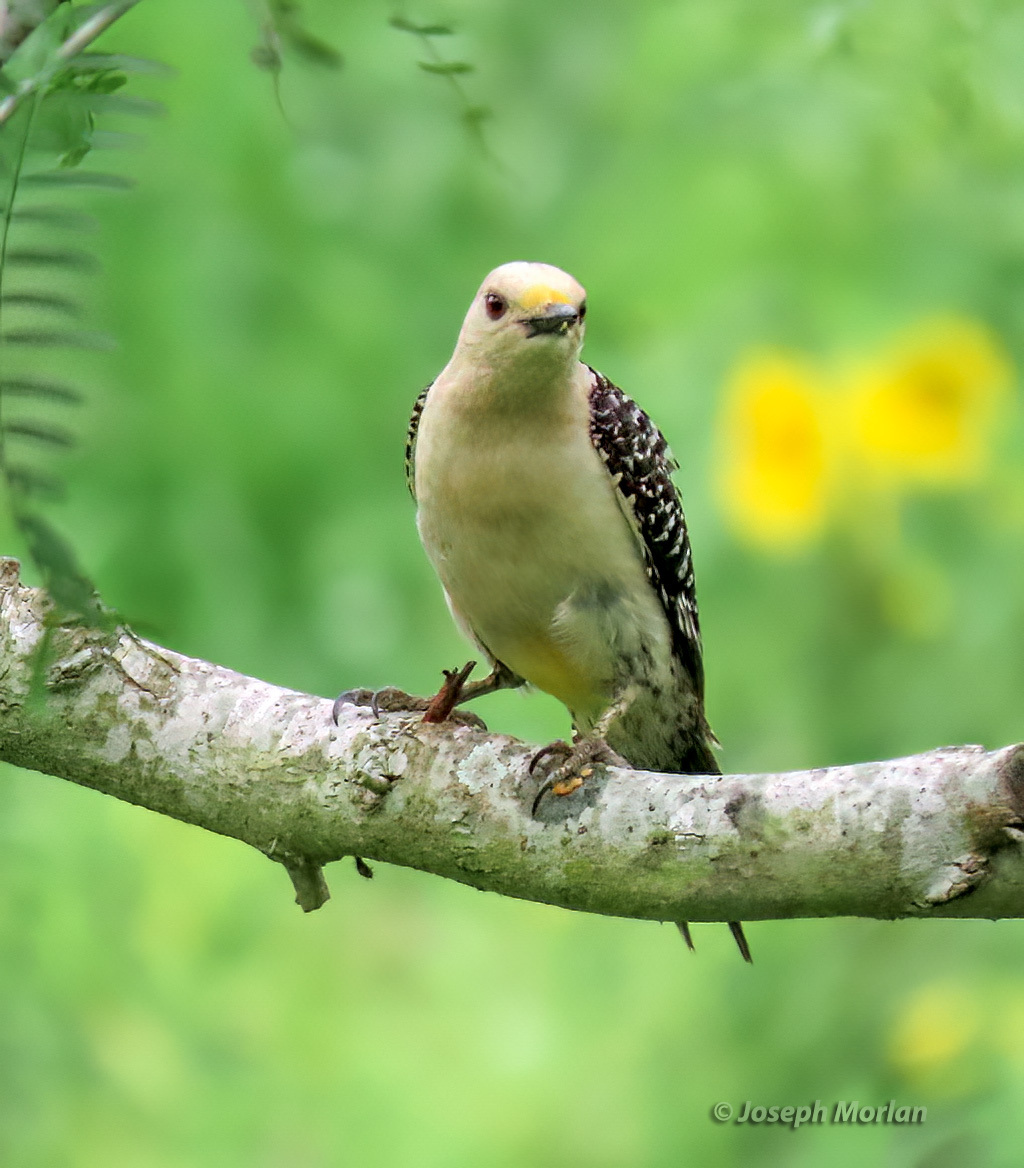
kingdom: Animalia
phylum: Chordata
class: Aves
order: Piciformes
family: Picidae
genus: Melanerpes
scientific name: Melanerpes aurifrons
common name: Golden-fronted woodpecker
